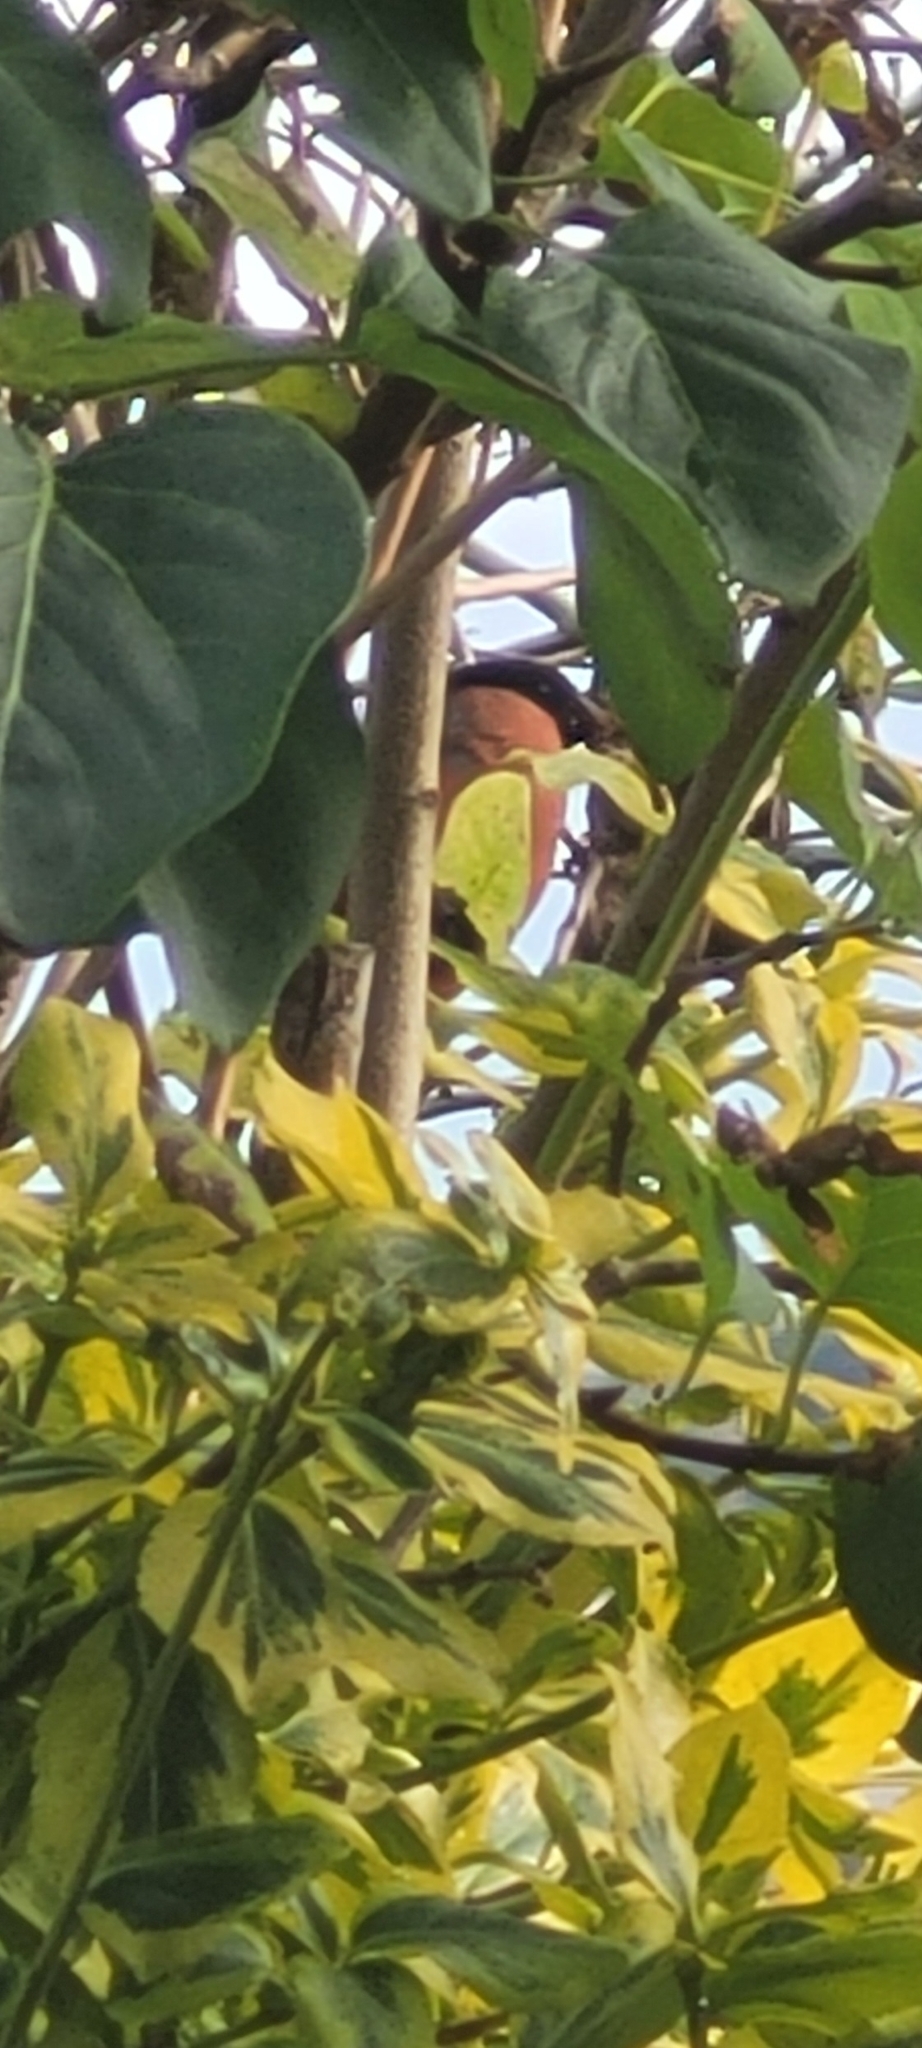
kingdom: Animalia
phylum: Chordata
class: Aves
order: Passeriformes
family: Fringillidae
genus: Pyrrhula
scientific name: Pyrrhula pyrrhula
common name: Eurasian bullfinch
